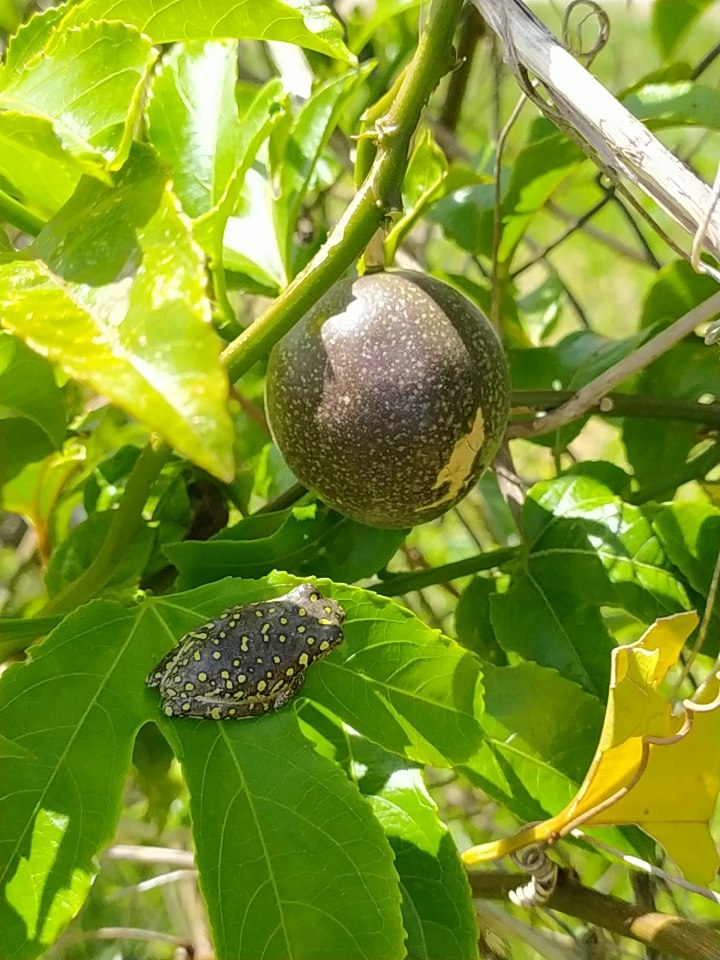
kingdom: Animalia
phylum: Chordata
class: Amphibia
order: Anura
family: Hyperoliidae
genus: Hyperolius
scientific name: Hyperolius marmoratus
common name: Painted reed frog
